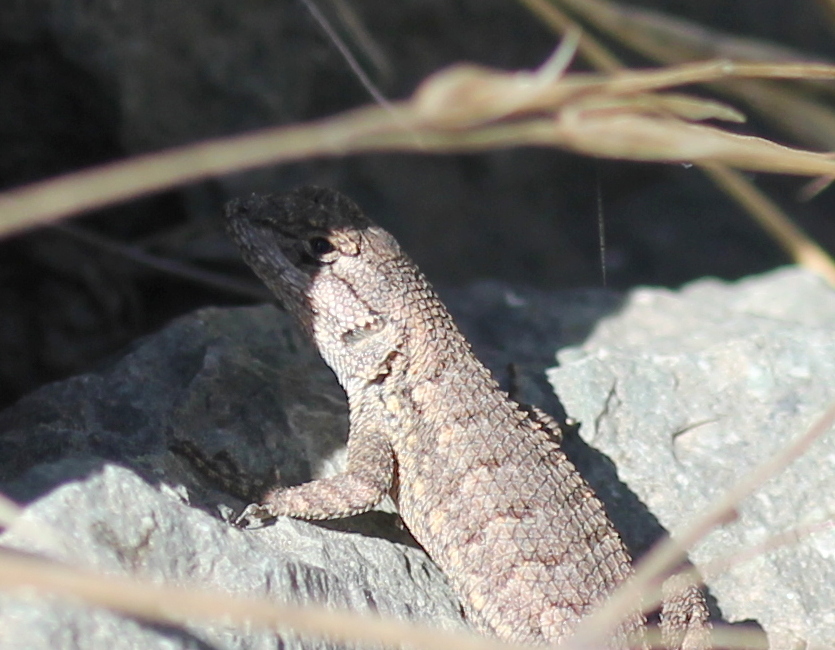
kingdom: Animalia
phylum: Chordata
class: Squamata
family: Phrynosomatidae
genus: Sceloporus
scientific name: Sceloporus occidentalis
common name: Western fence lizard
